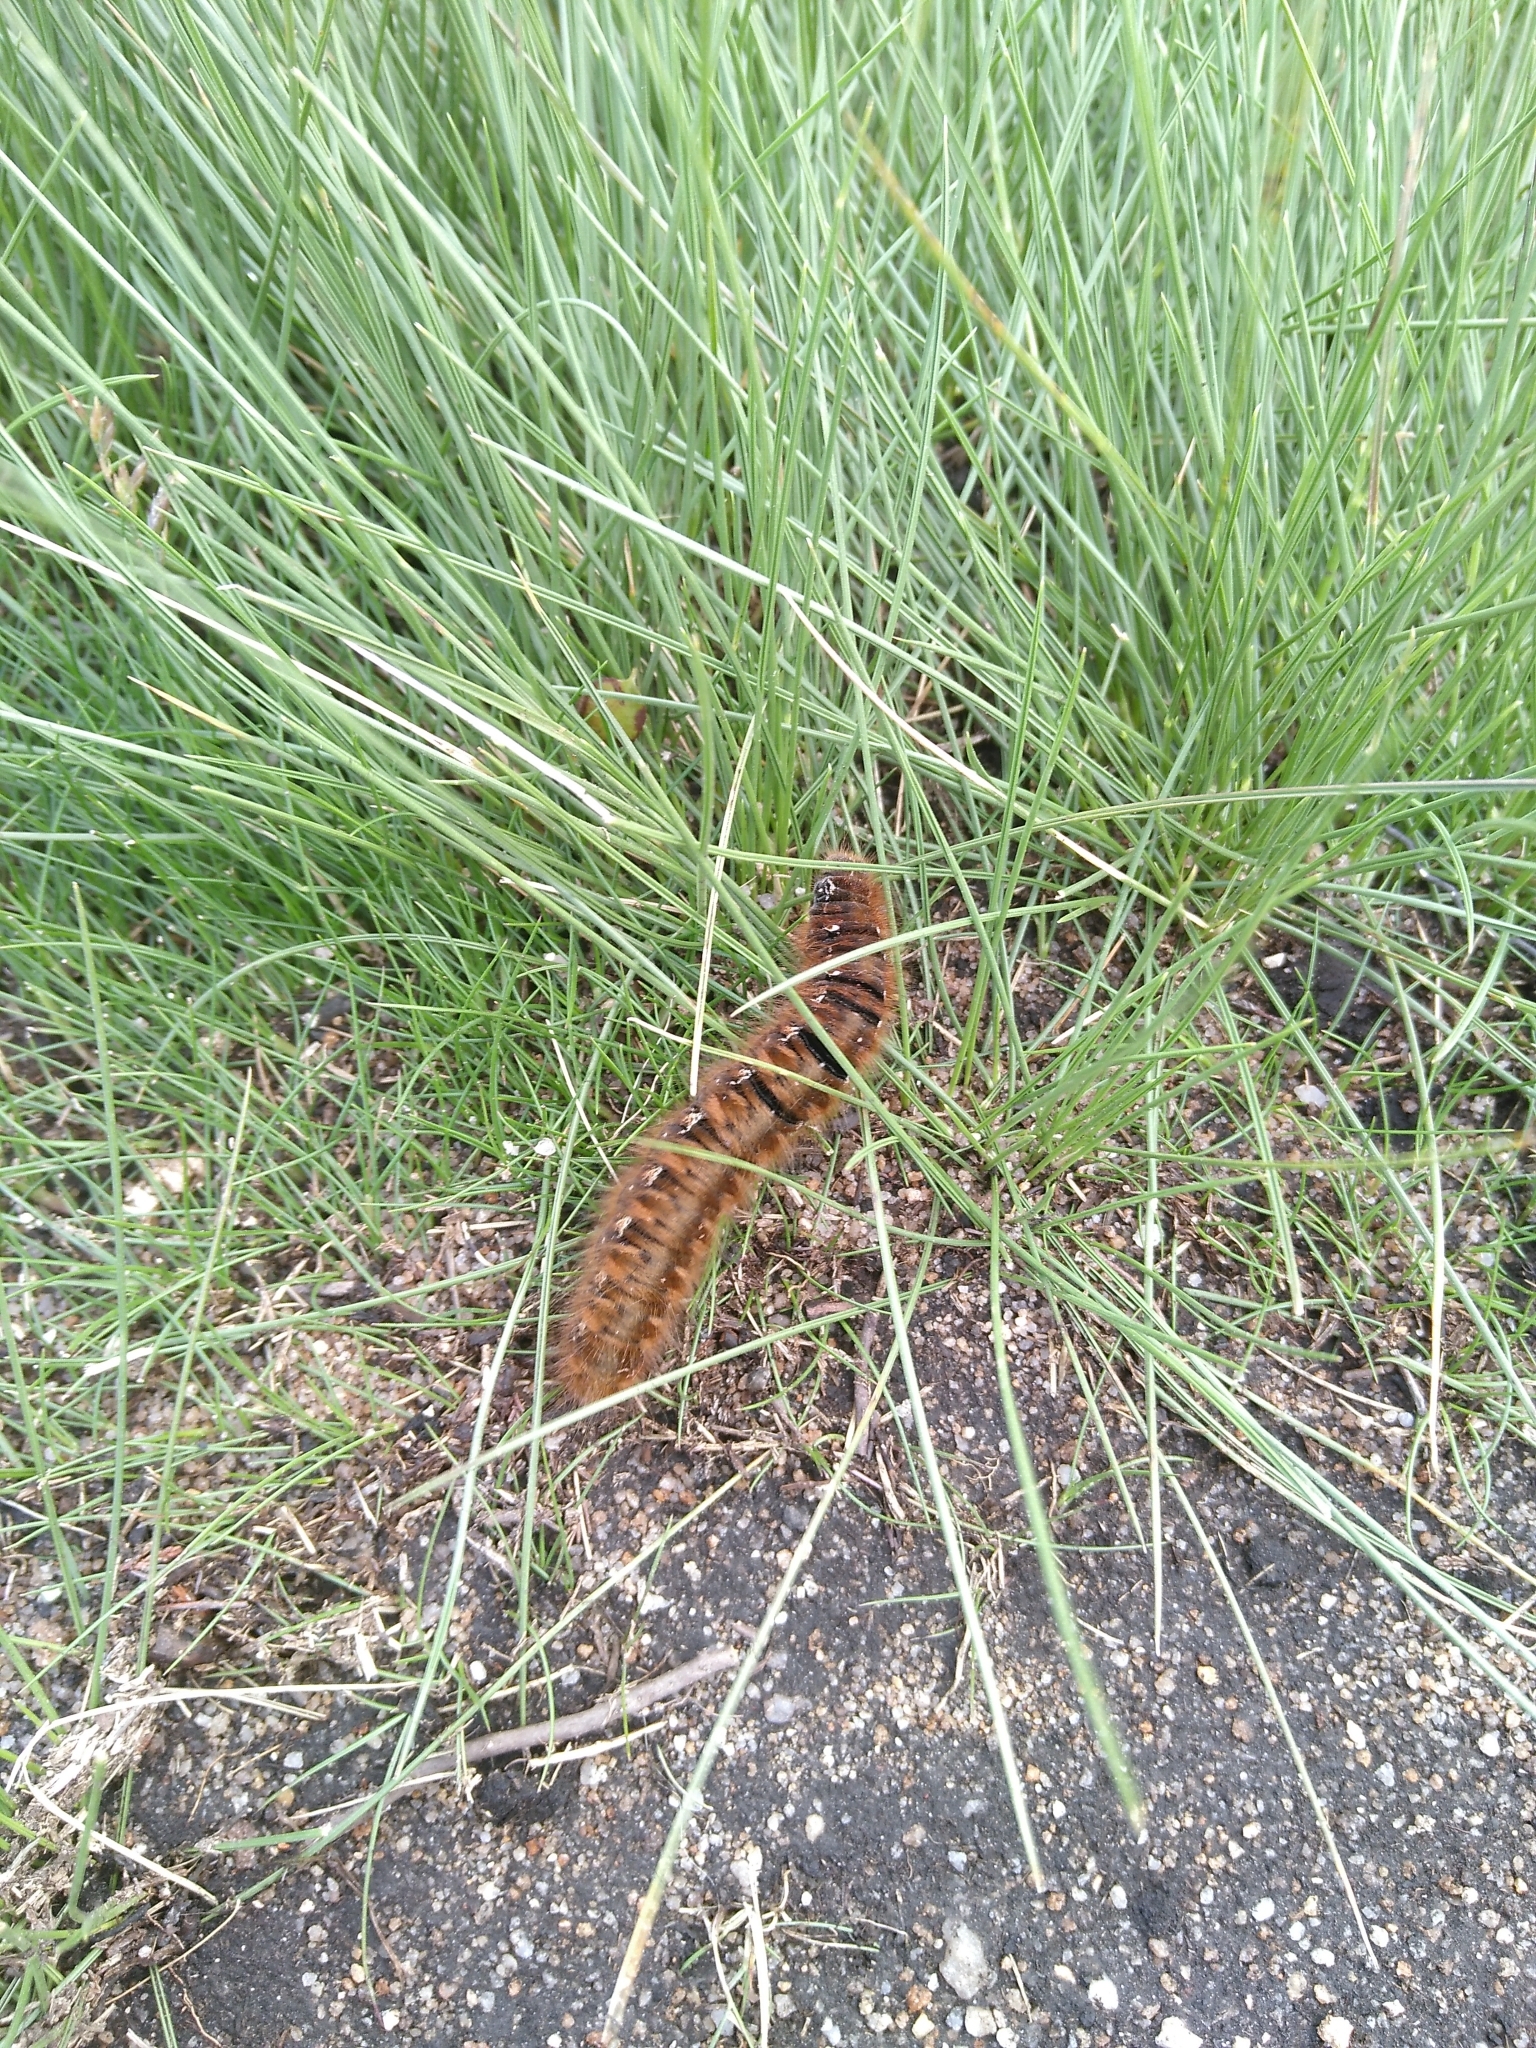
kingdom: Animalia
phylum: Arthropoda
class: Insecta
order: Lepidoptera
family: Lasiocampidae
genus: Lasiocampa
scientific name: Lasiocampa quercus
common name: Oak eggar
